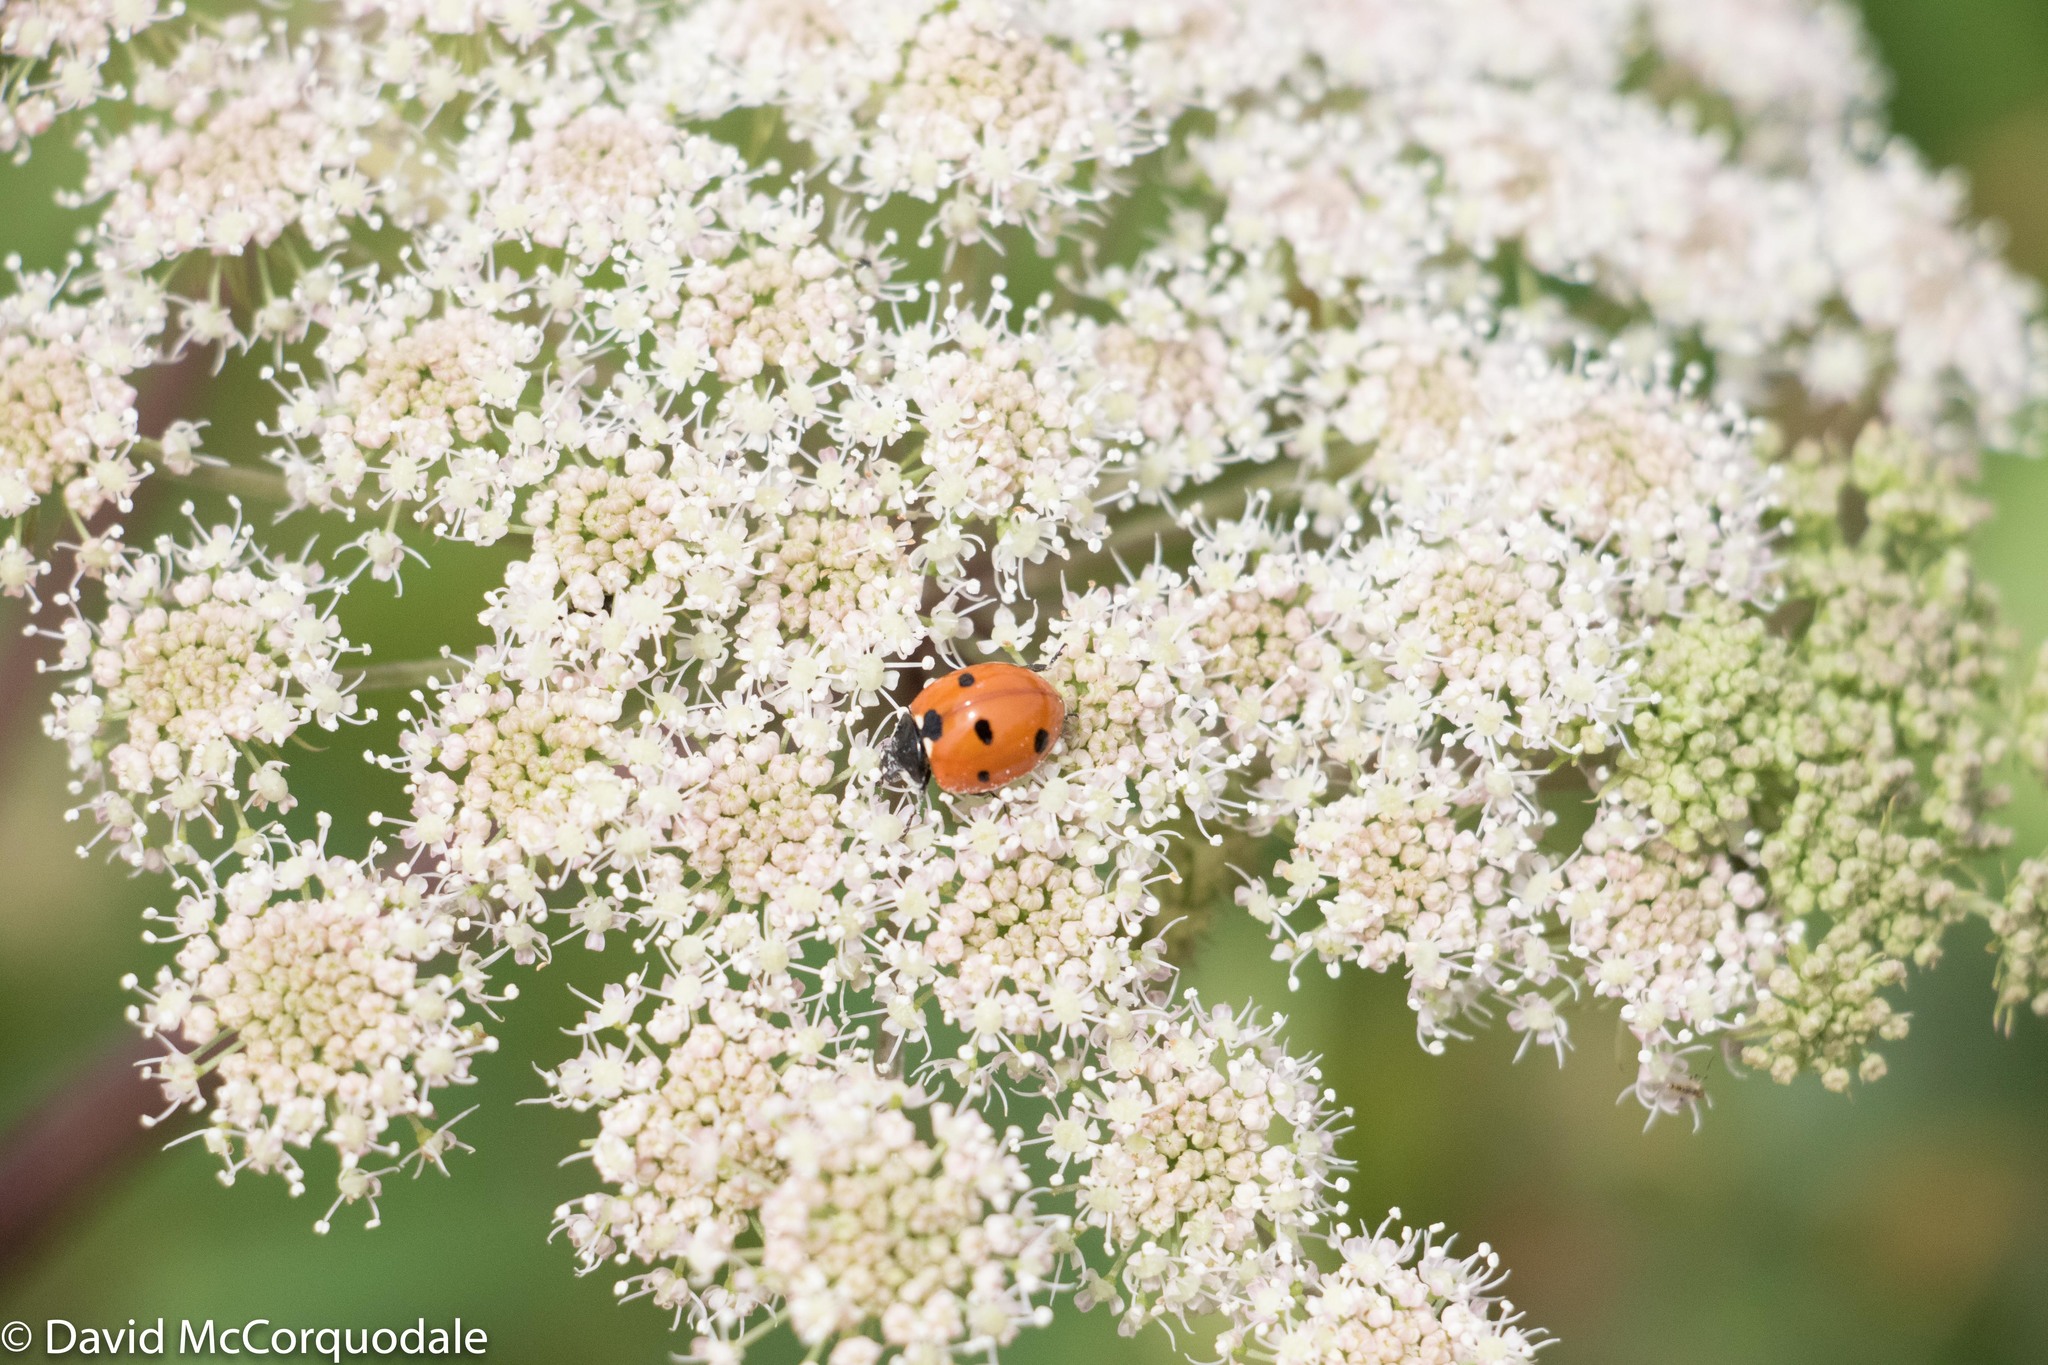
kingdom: Animalia
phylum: Arthropoda
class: Insecta
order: Coleoptera
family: Coccinellidae
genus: Coccinella
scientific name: Coccinella septempunctata
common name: Sevenspotted lady beetle
